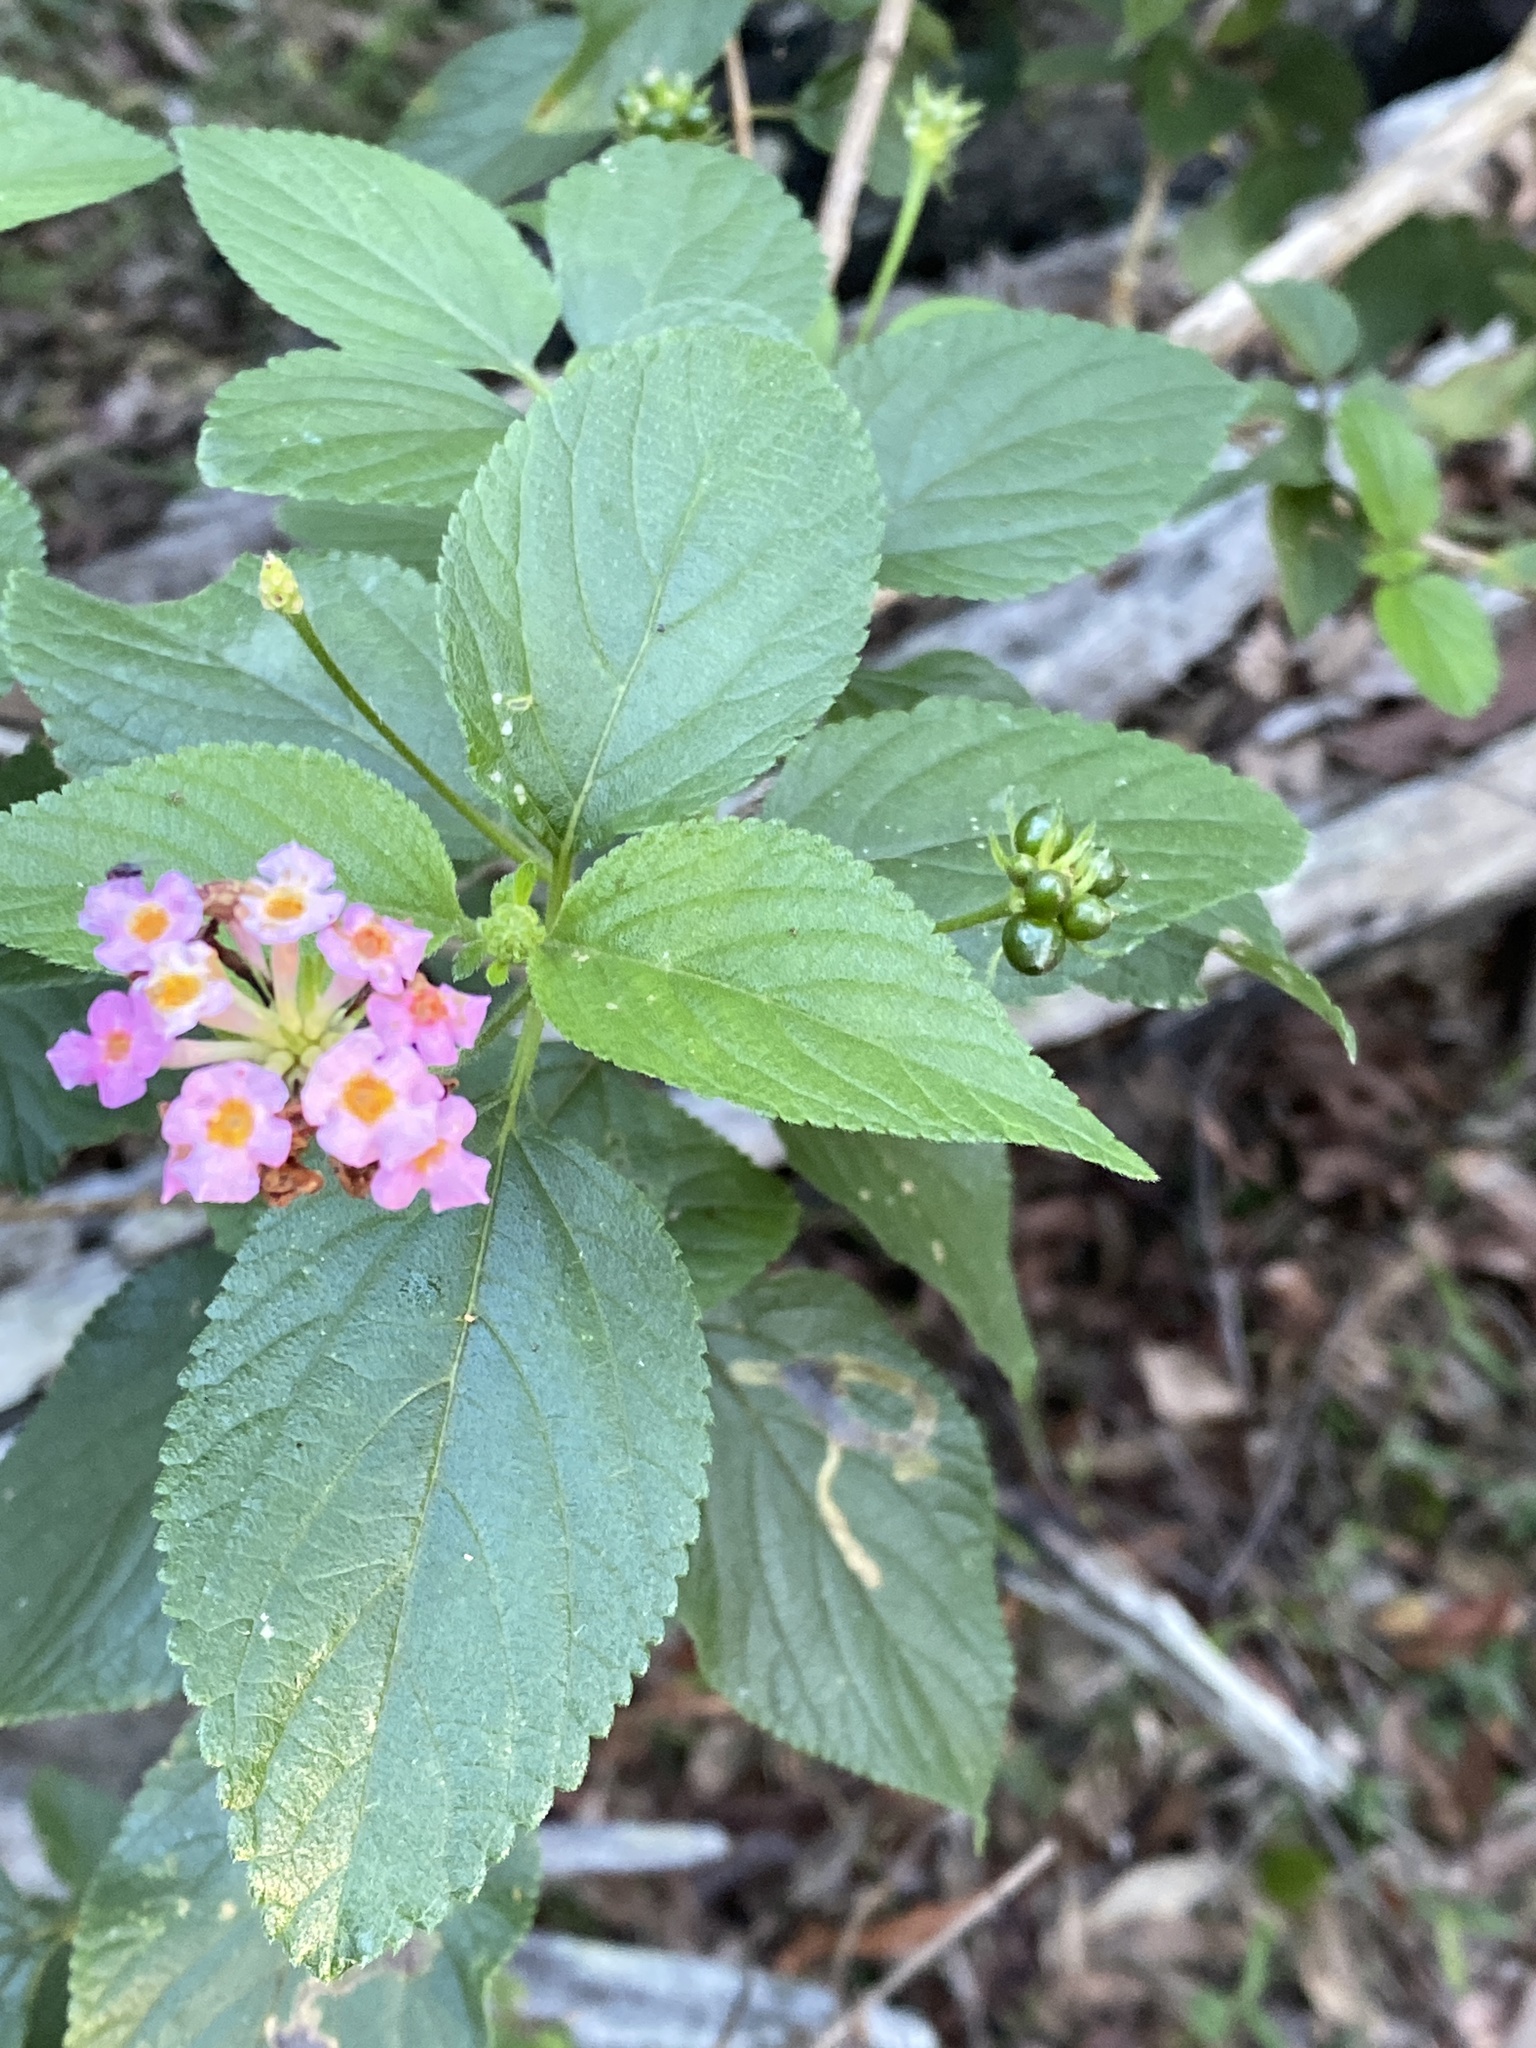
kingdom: Plantae
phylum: Tracheophyta
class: Magnoliopsida
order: Lamiales
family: Verbenaceae
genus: Lantana
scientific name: Lantana camara
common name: Lantana
